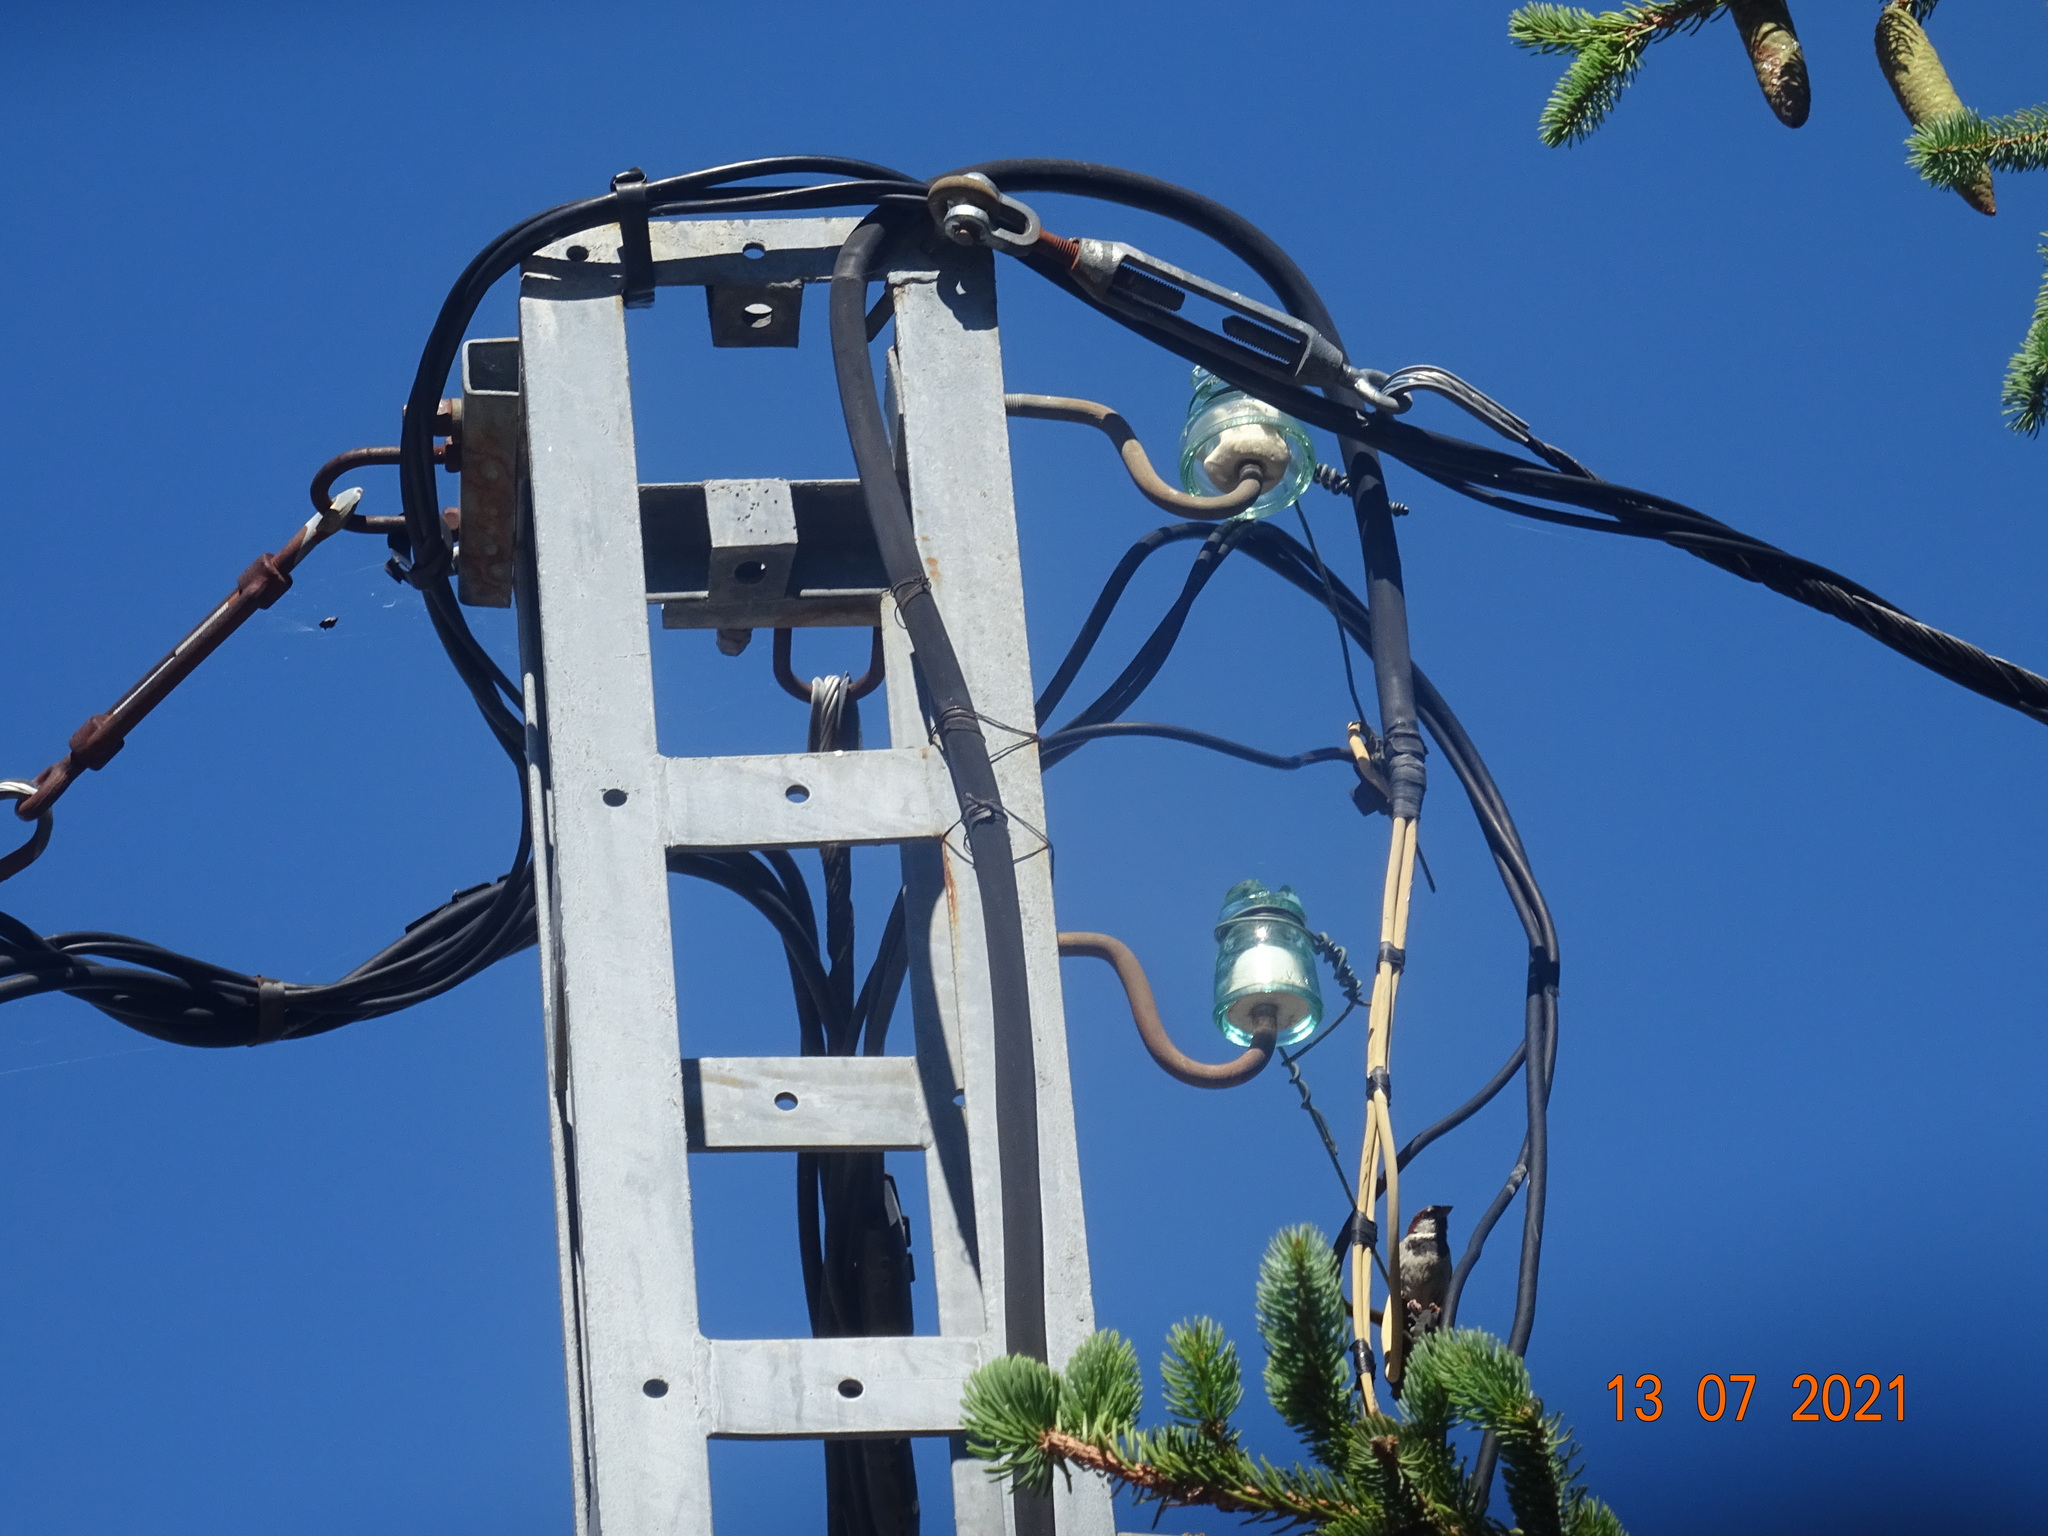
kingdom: Animalia
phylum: Chordata
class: Aves
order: Passeriformes
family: Passeridae
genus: Passer
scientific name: Passer domesticus
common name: House sparrow
